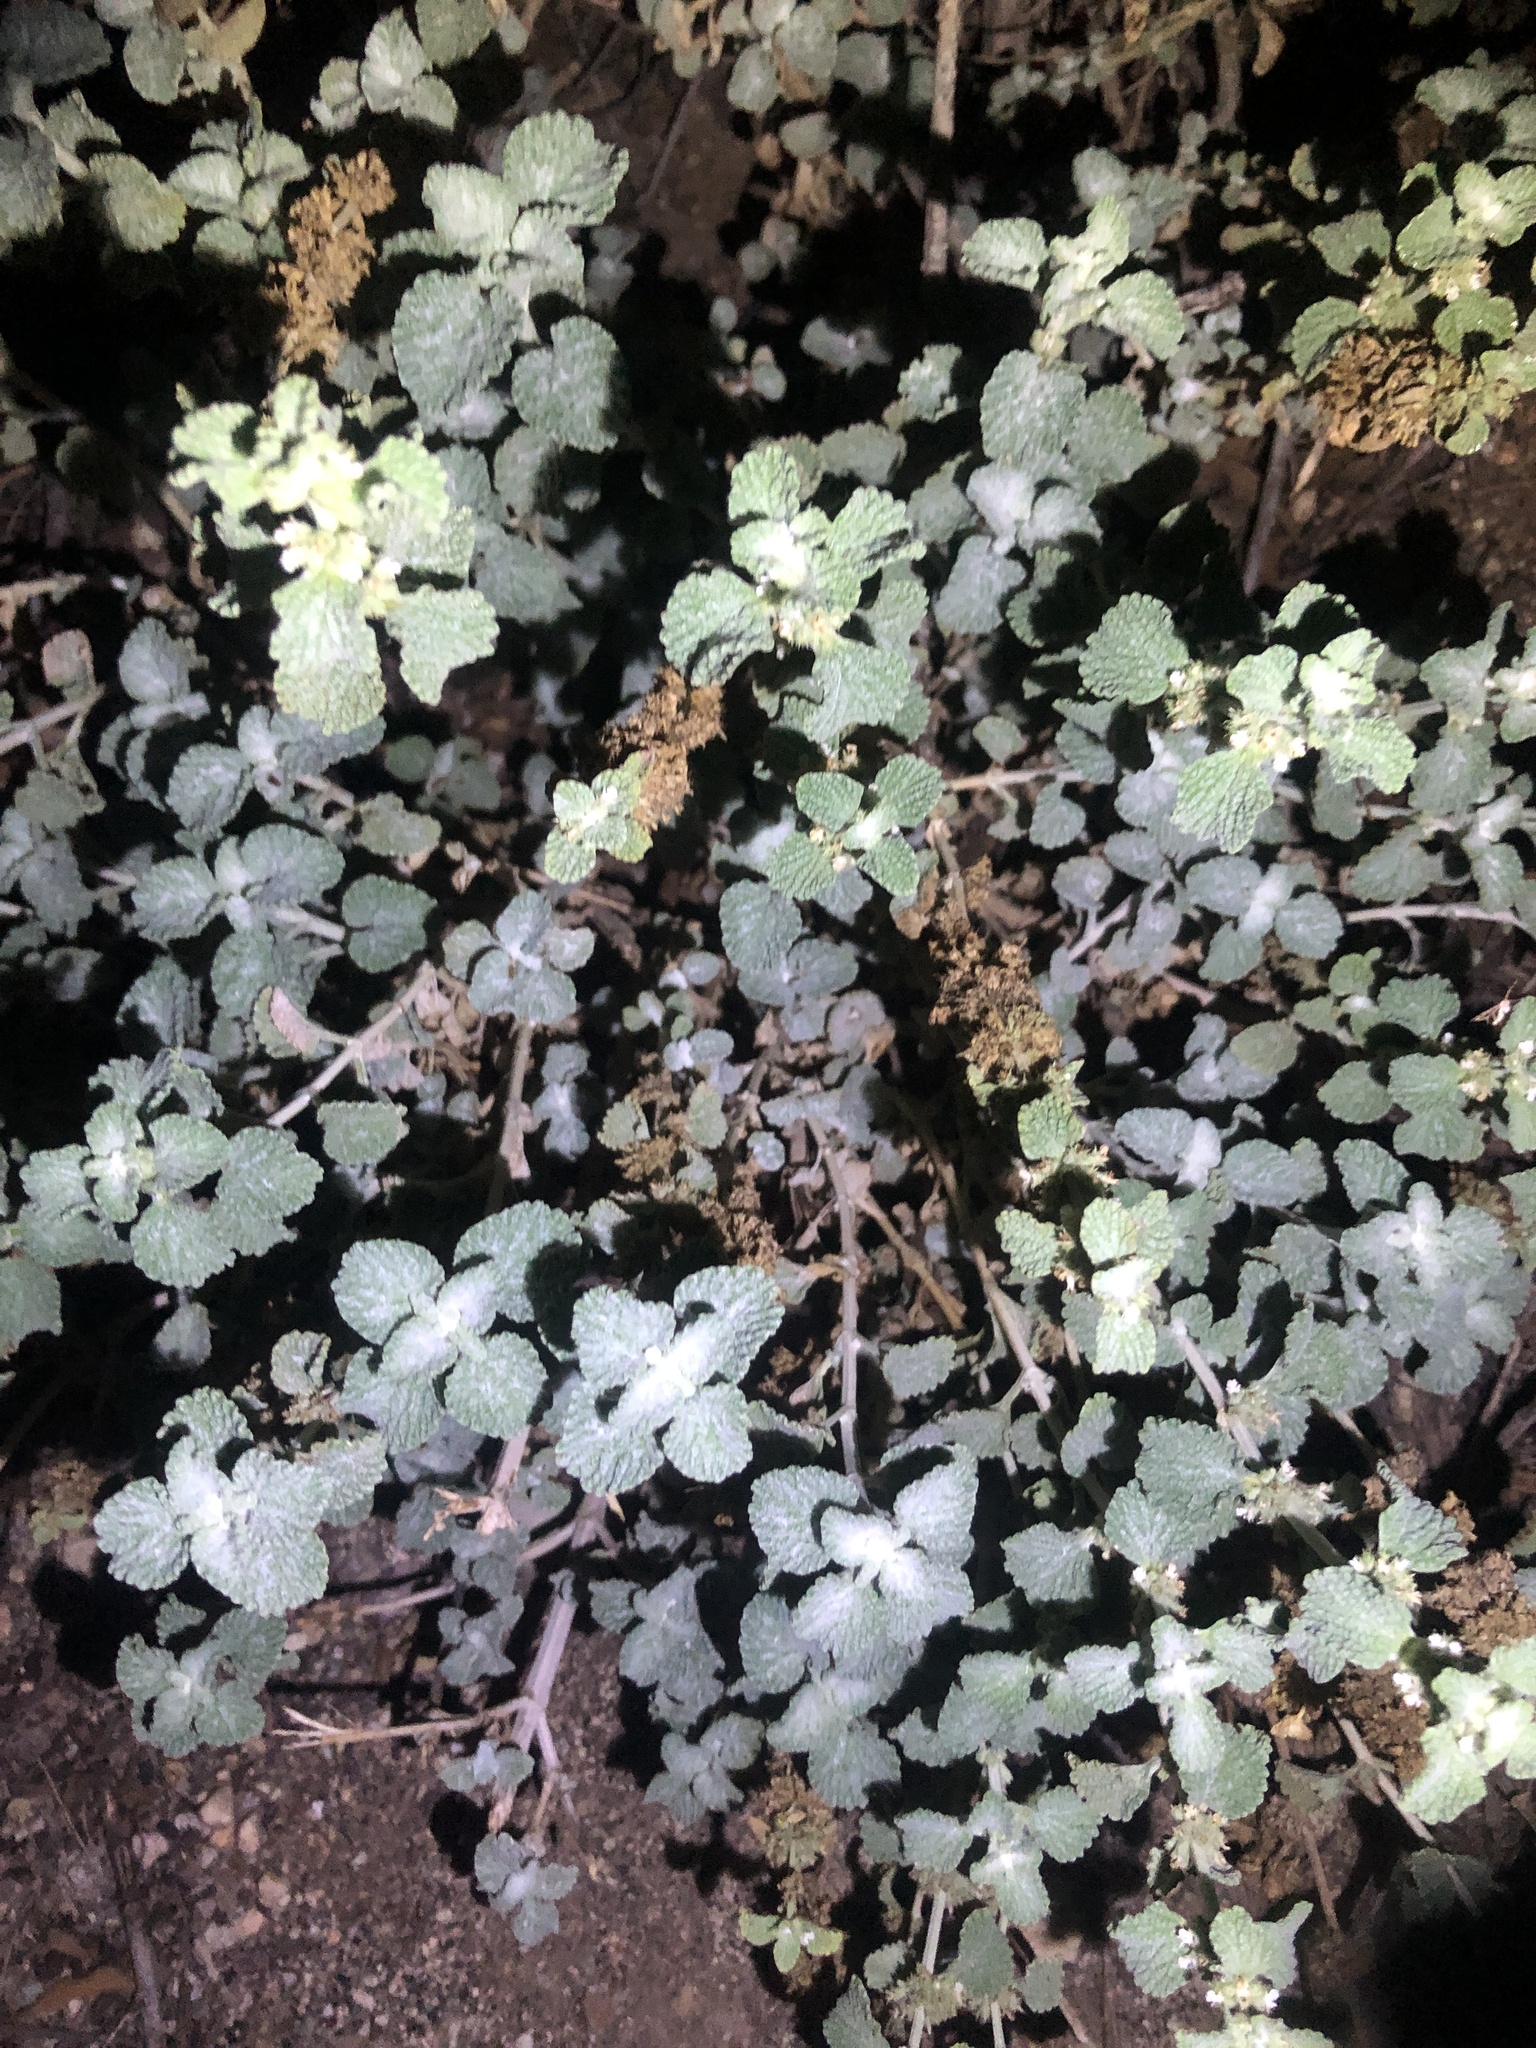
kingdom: Plantae
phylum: Tracheophyta
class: Magnoliopsida
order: Lamiales
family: Lamiaceae
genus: Marrubium
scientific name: Marrubium vulgare
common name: Horehound
